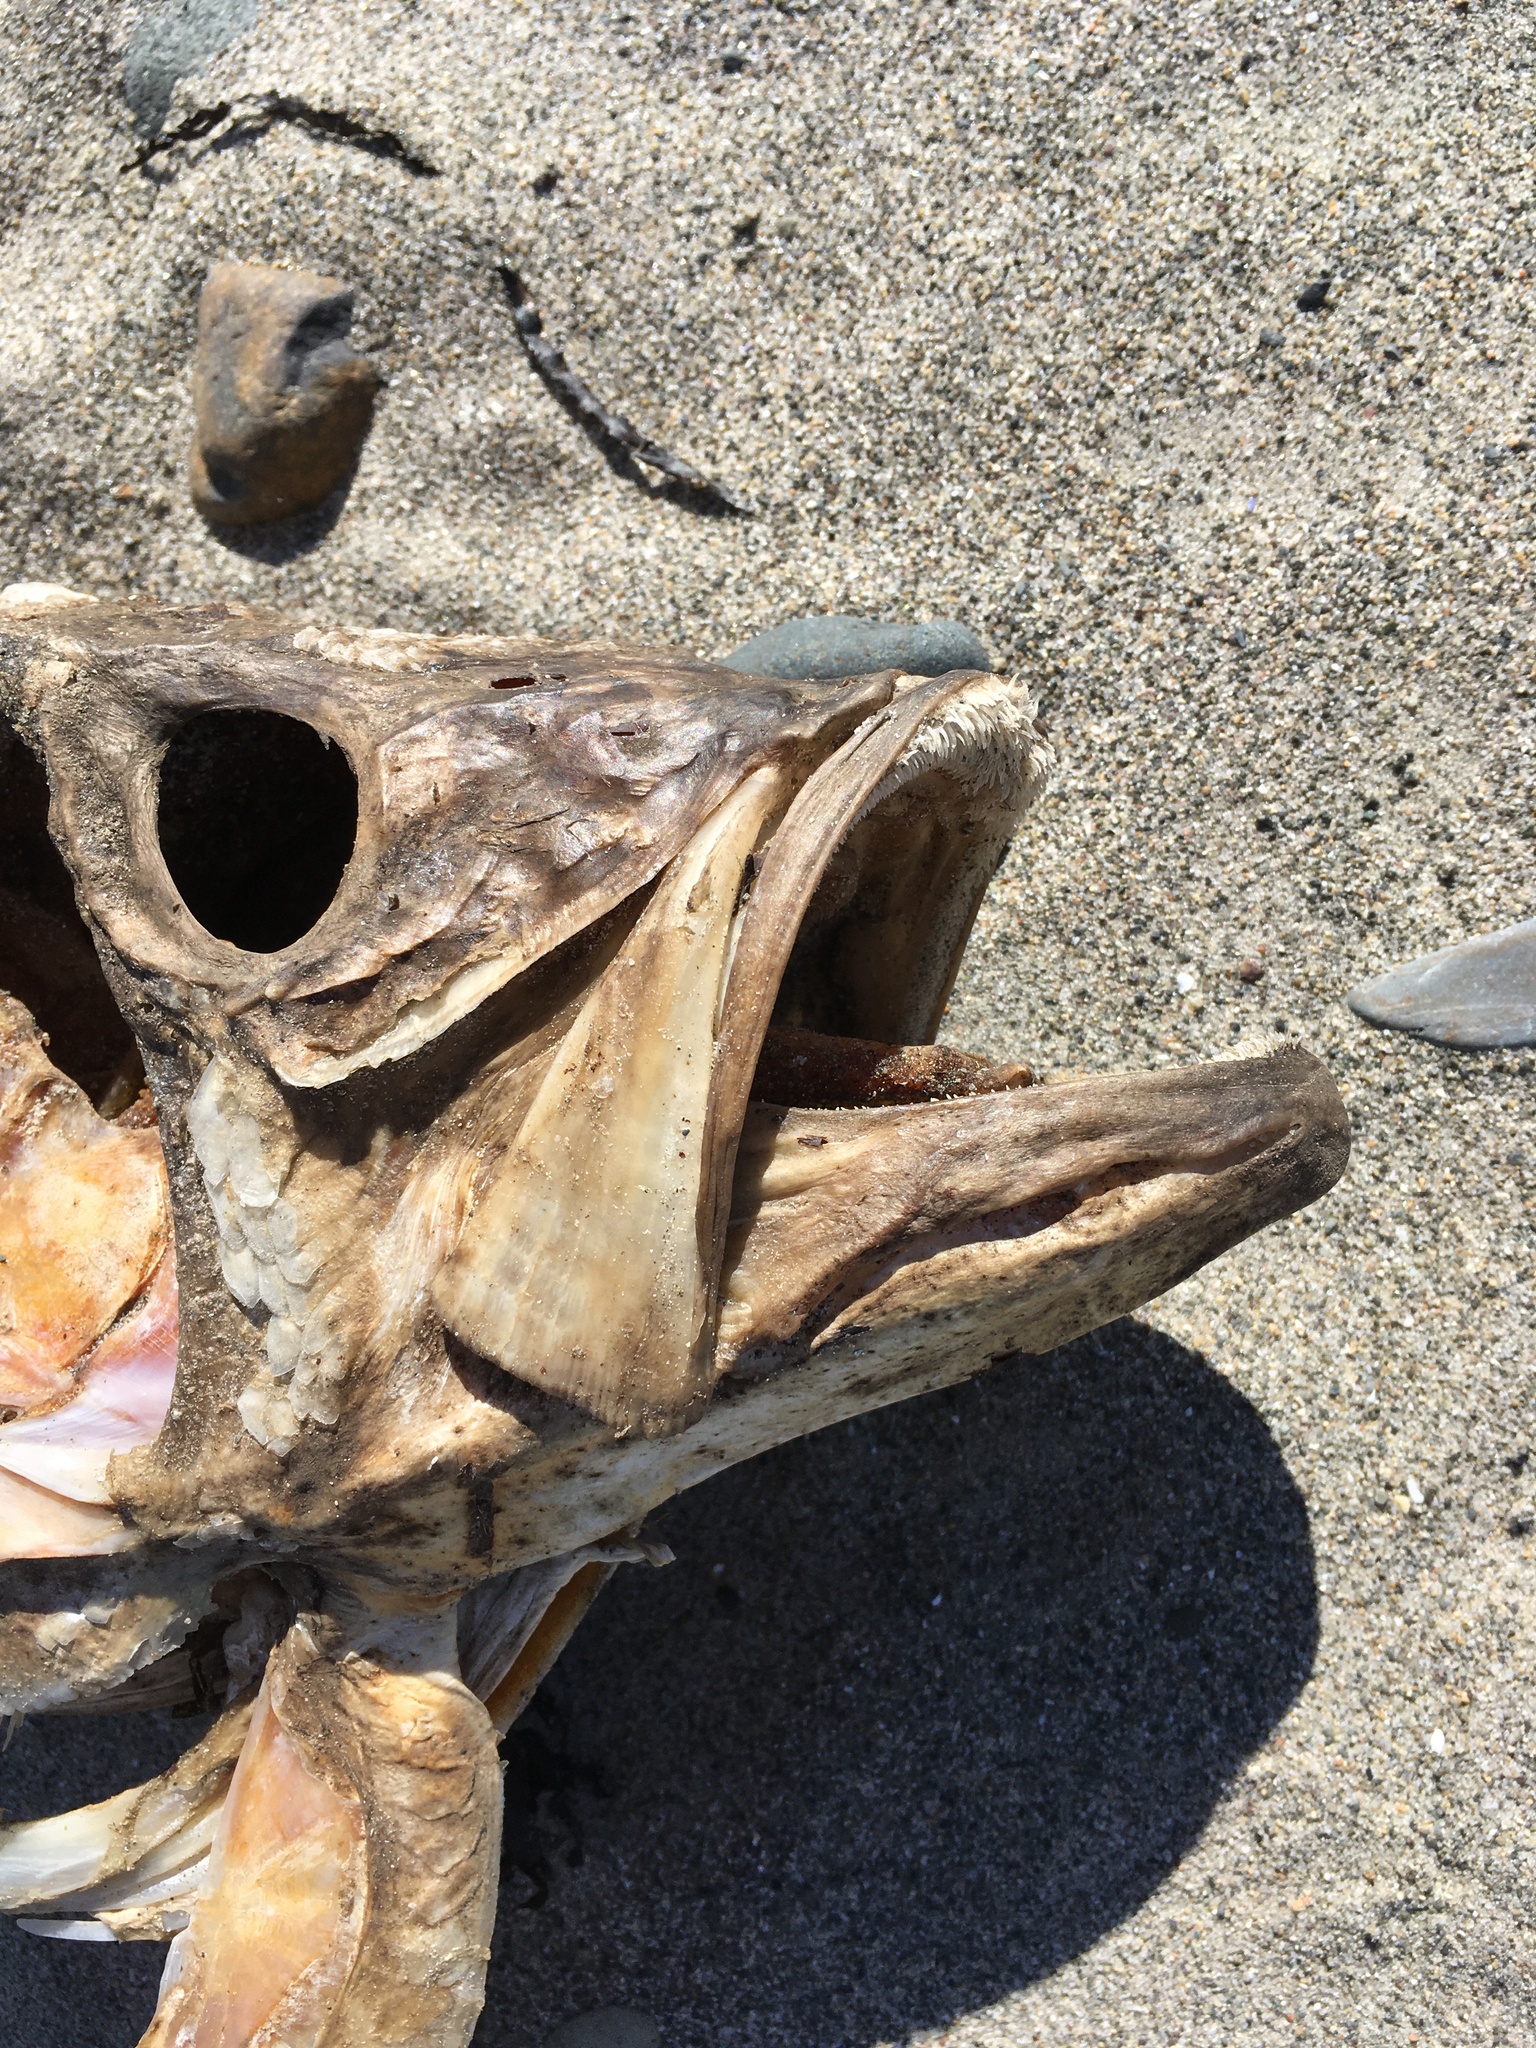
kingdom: Animalia
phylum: Chordata
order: Perciformes
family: Moronidae
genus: Morone
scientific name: Morone saxatilis
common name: Striped bass
